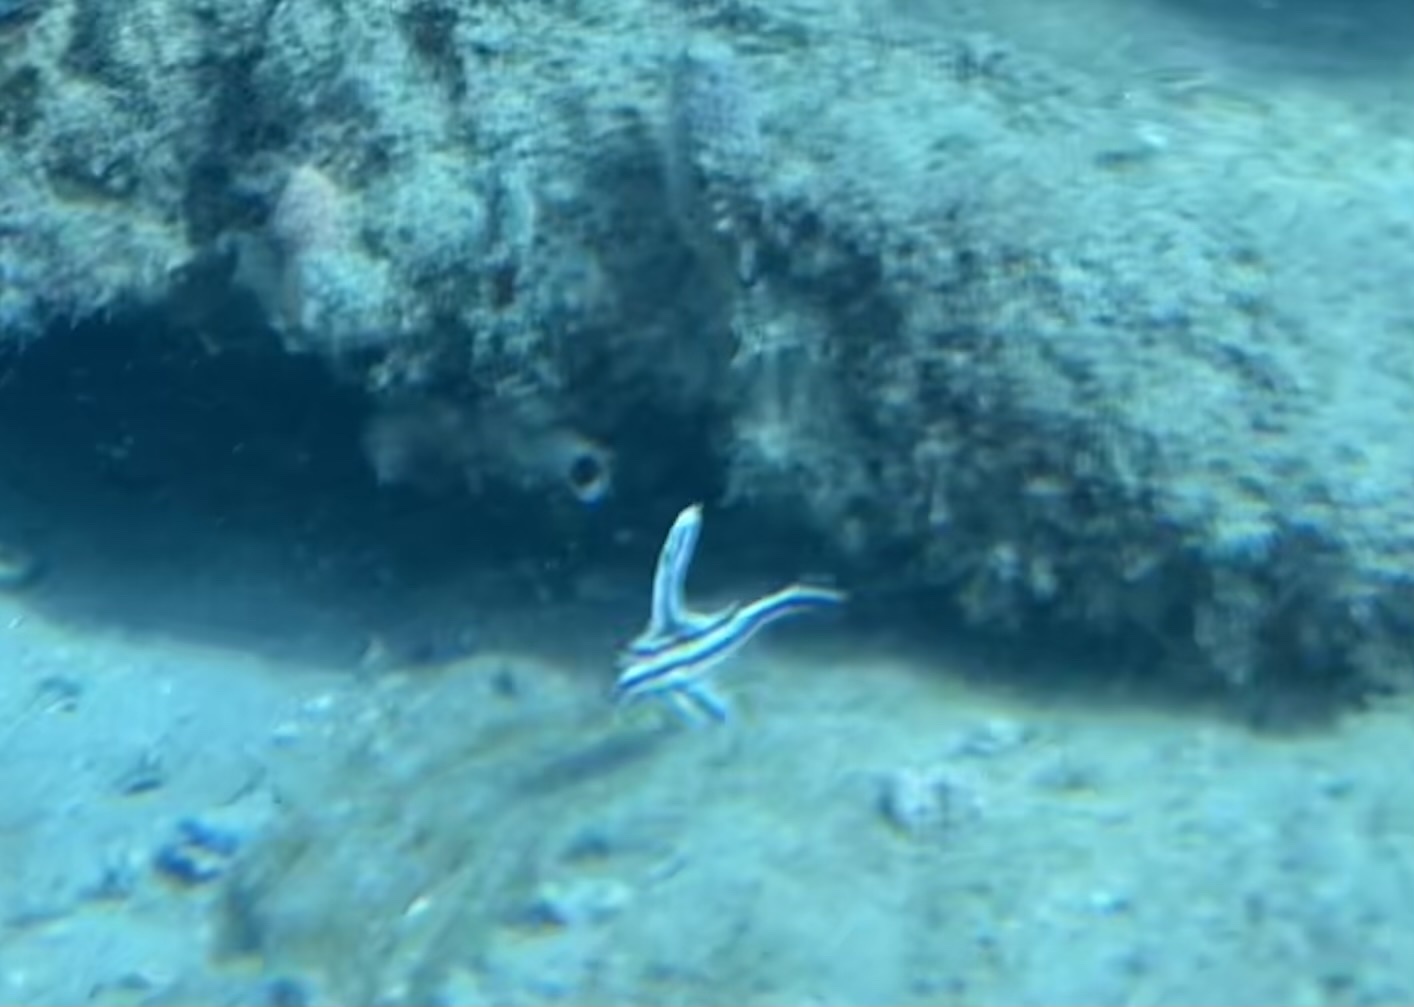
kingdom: Animalia
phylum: Chordata
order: Perciformes
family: Sciaenidae
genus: Pareques
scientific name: Pareques acuminatus
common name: High-hat
